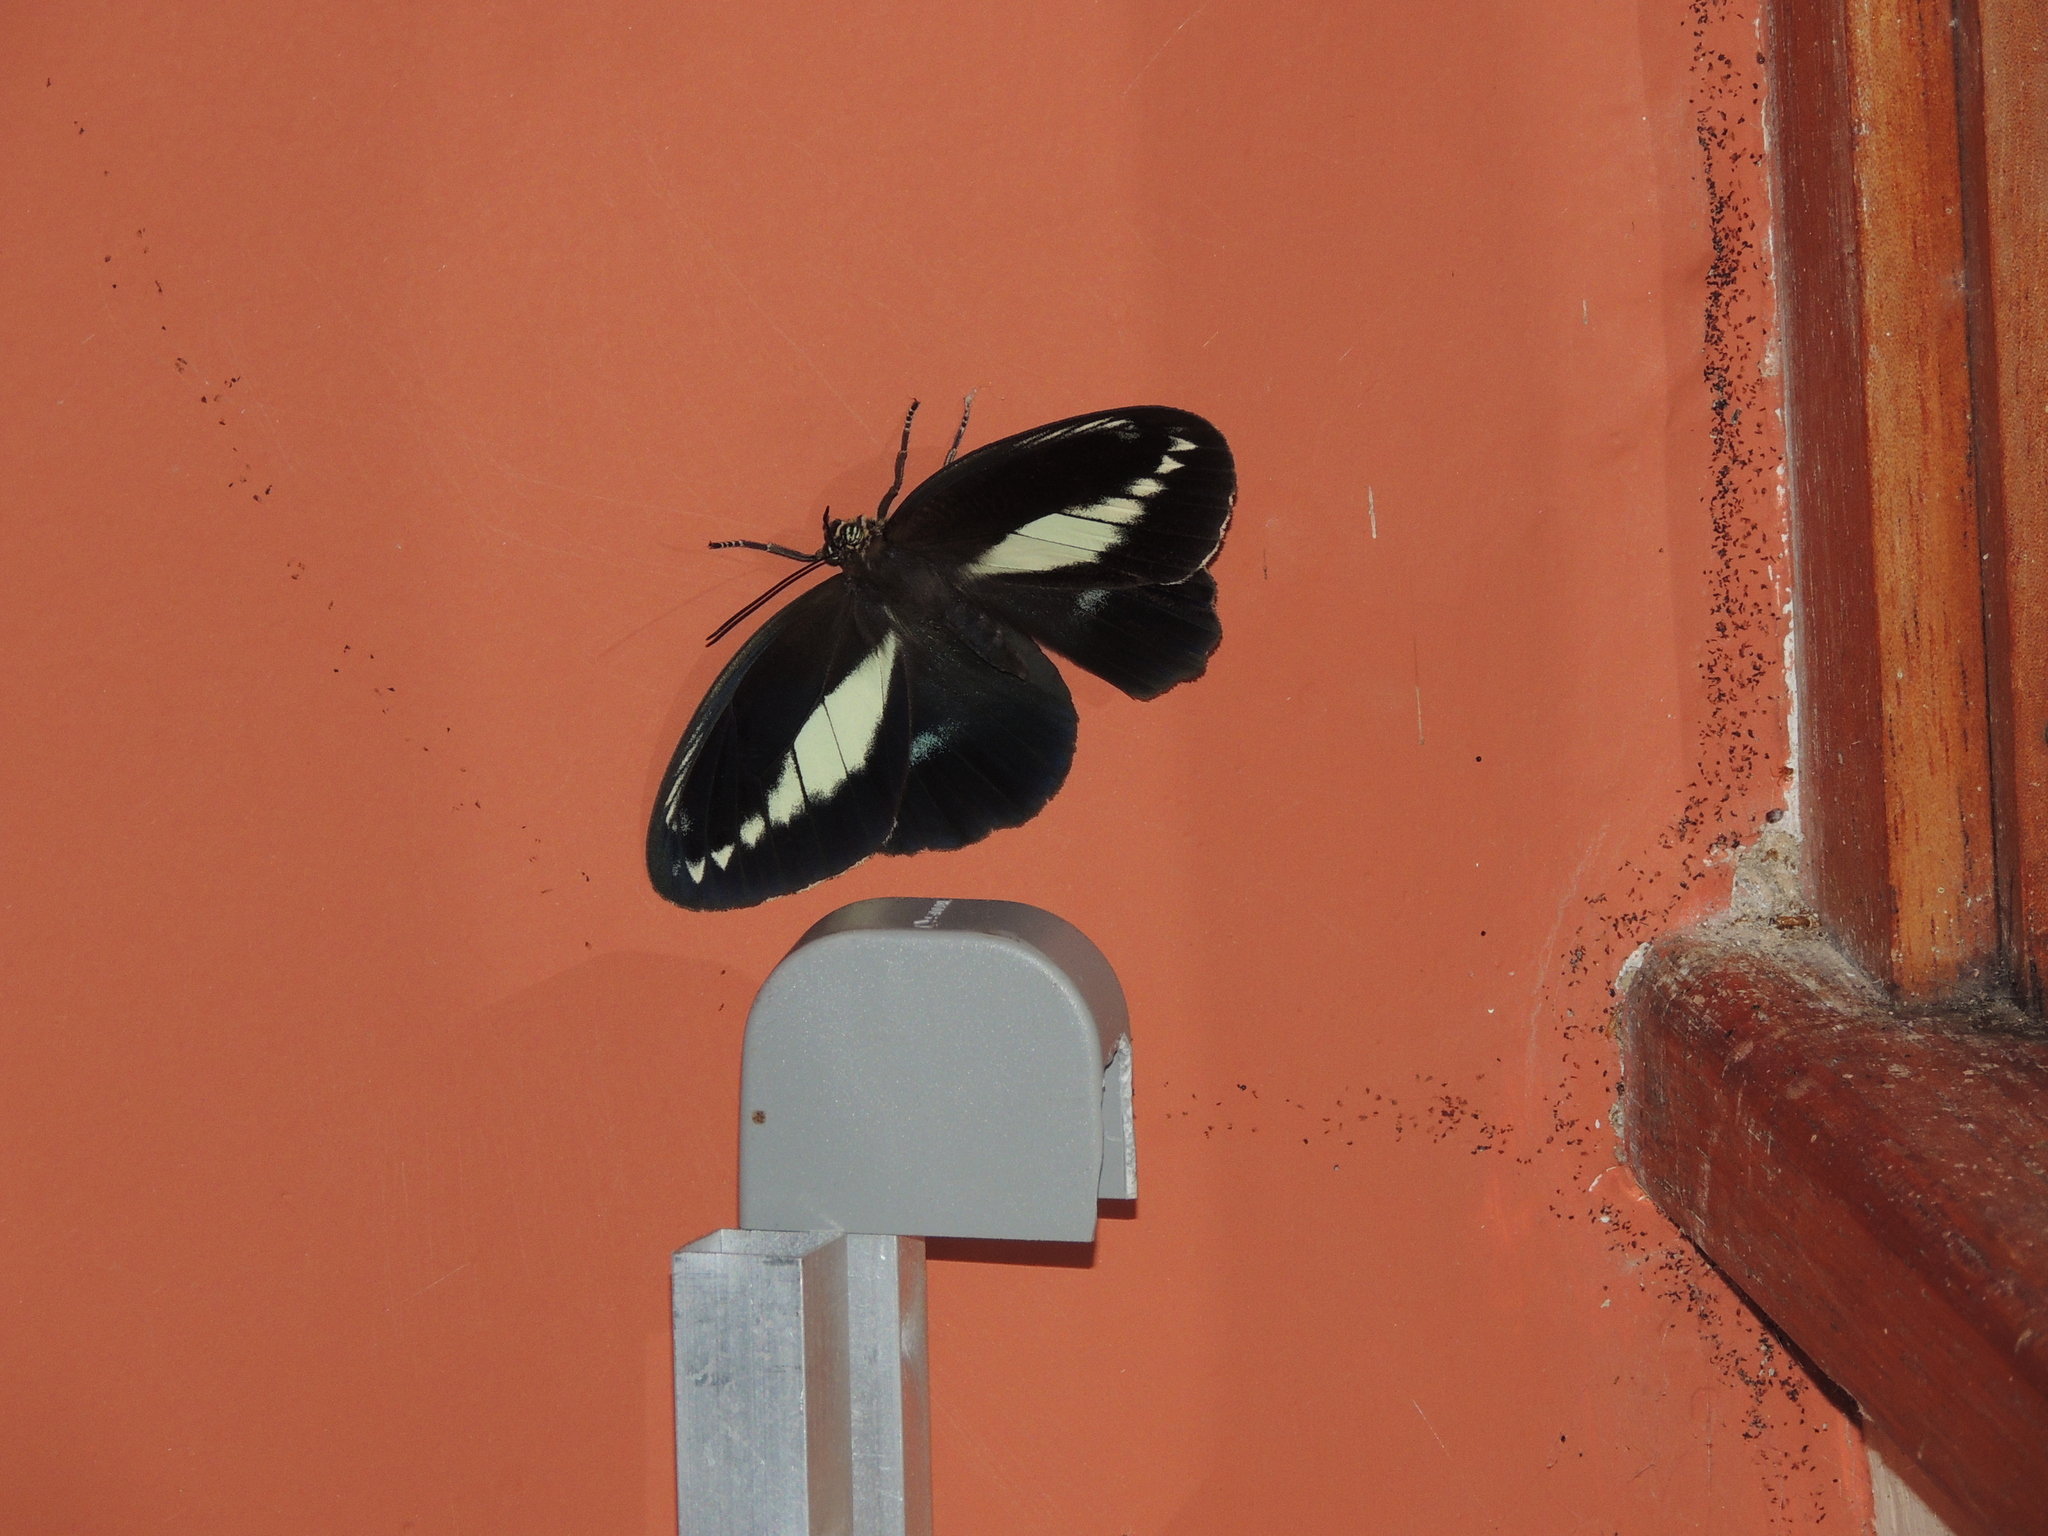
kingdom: Animalia
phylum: Arthropoda
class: Insecta
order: Lepidoptera
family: Nymphalidae
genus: Dasyophthalma
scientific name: Dasyophthalma creusa
